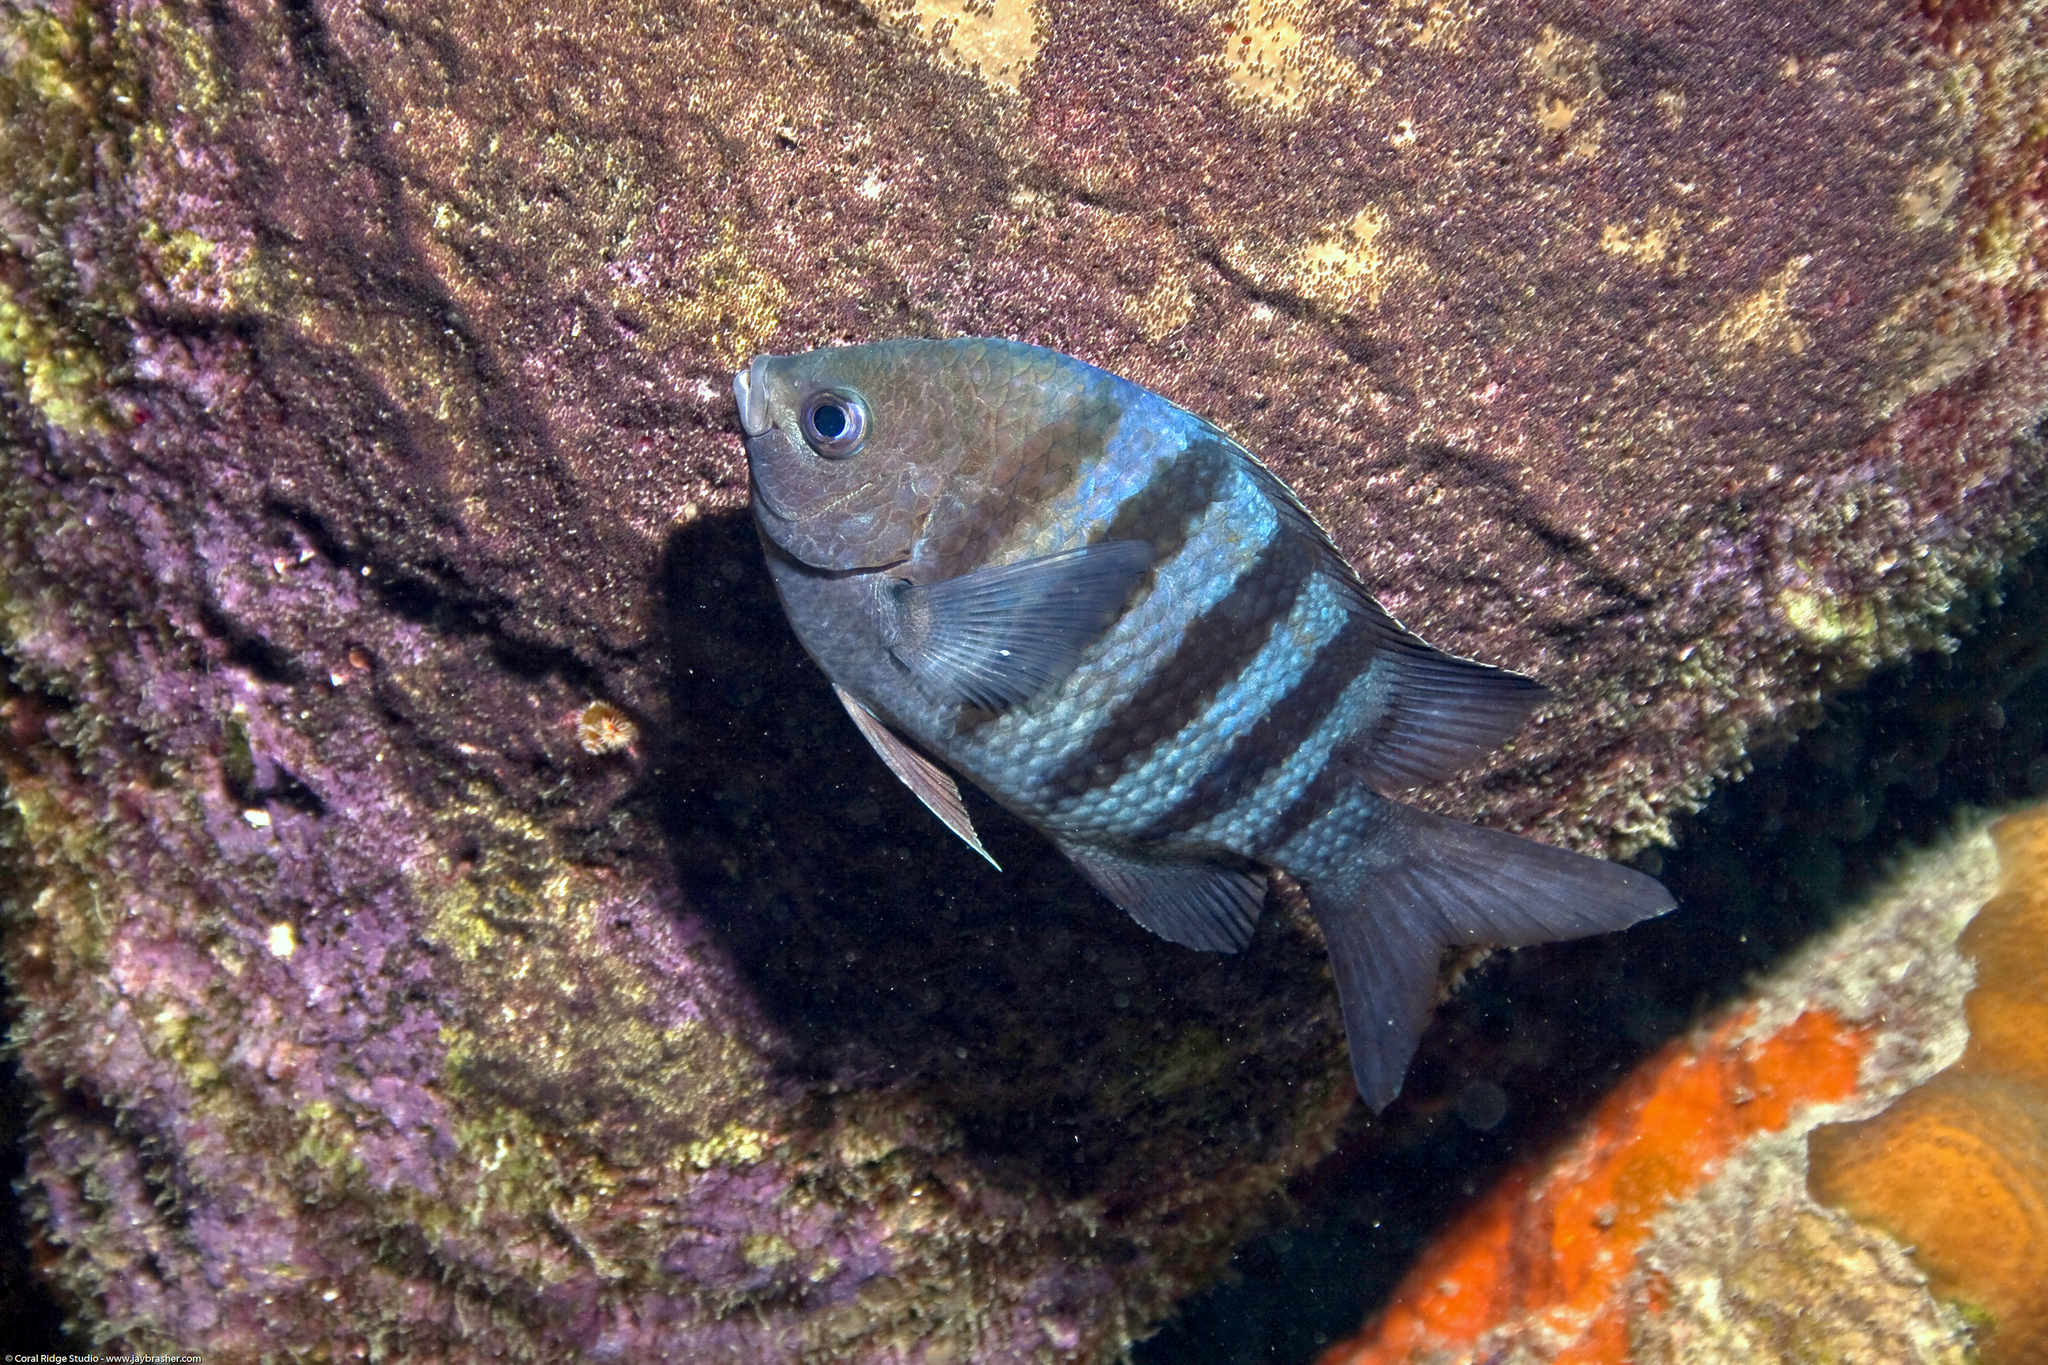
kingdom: Animalia
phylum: Chordata
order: Perciformes
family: Pomacentridae
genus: Abudefduf
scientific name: Abudefduf saxatilis
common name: Sergeant major
